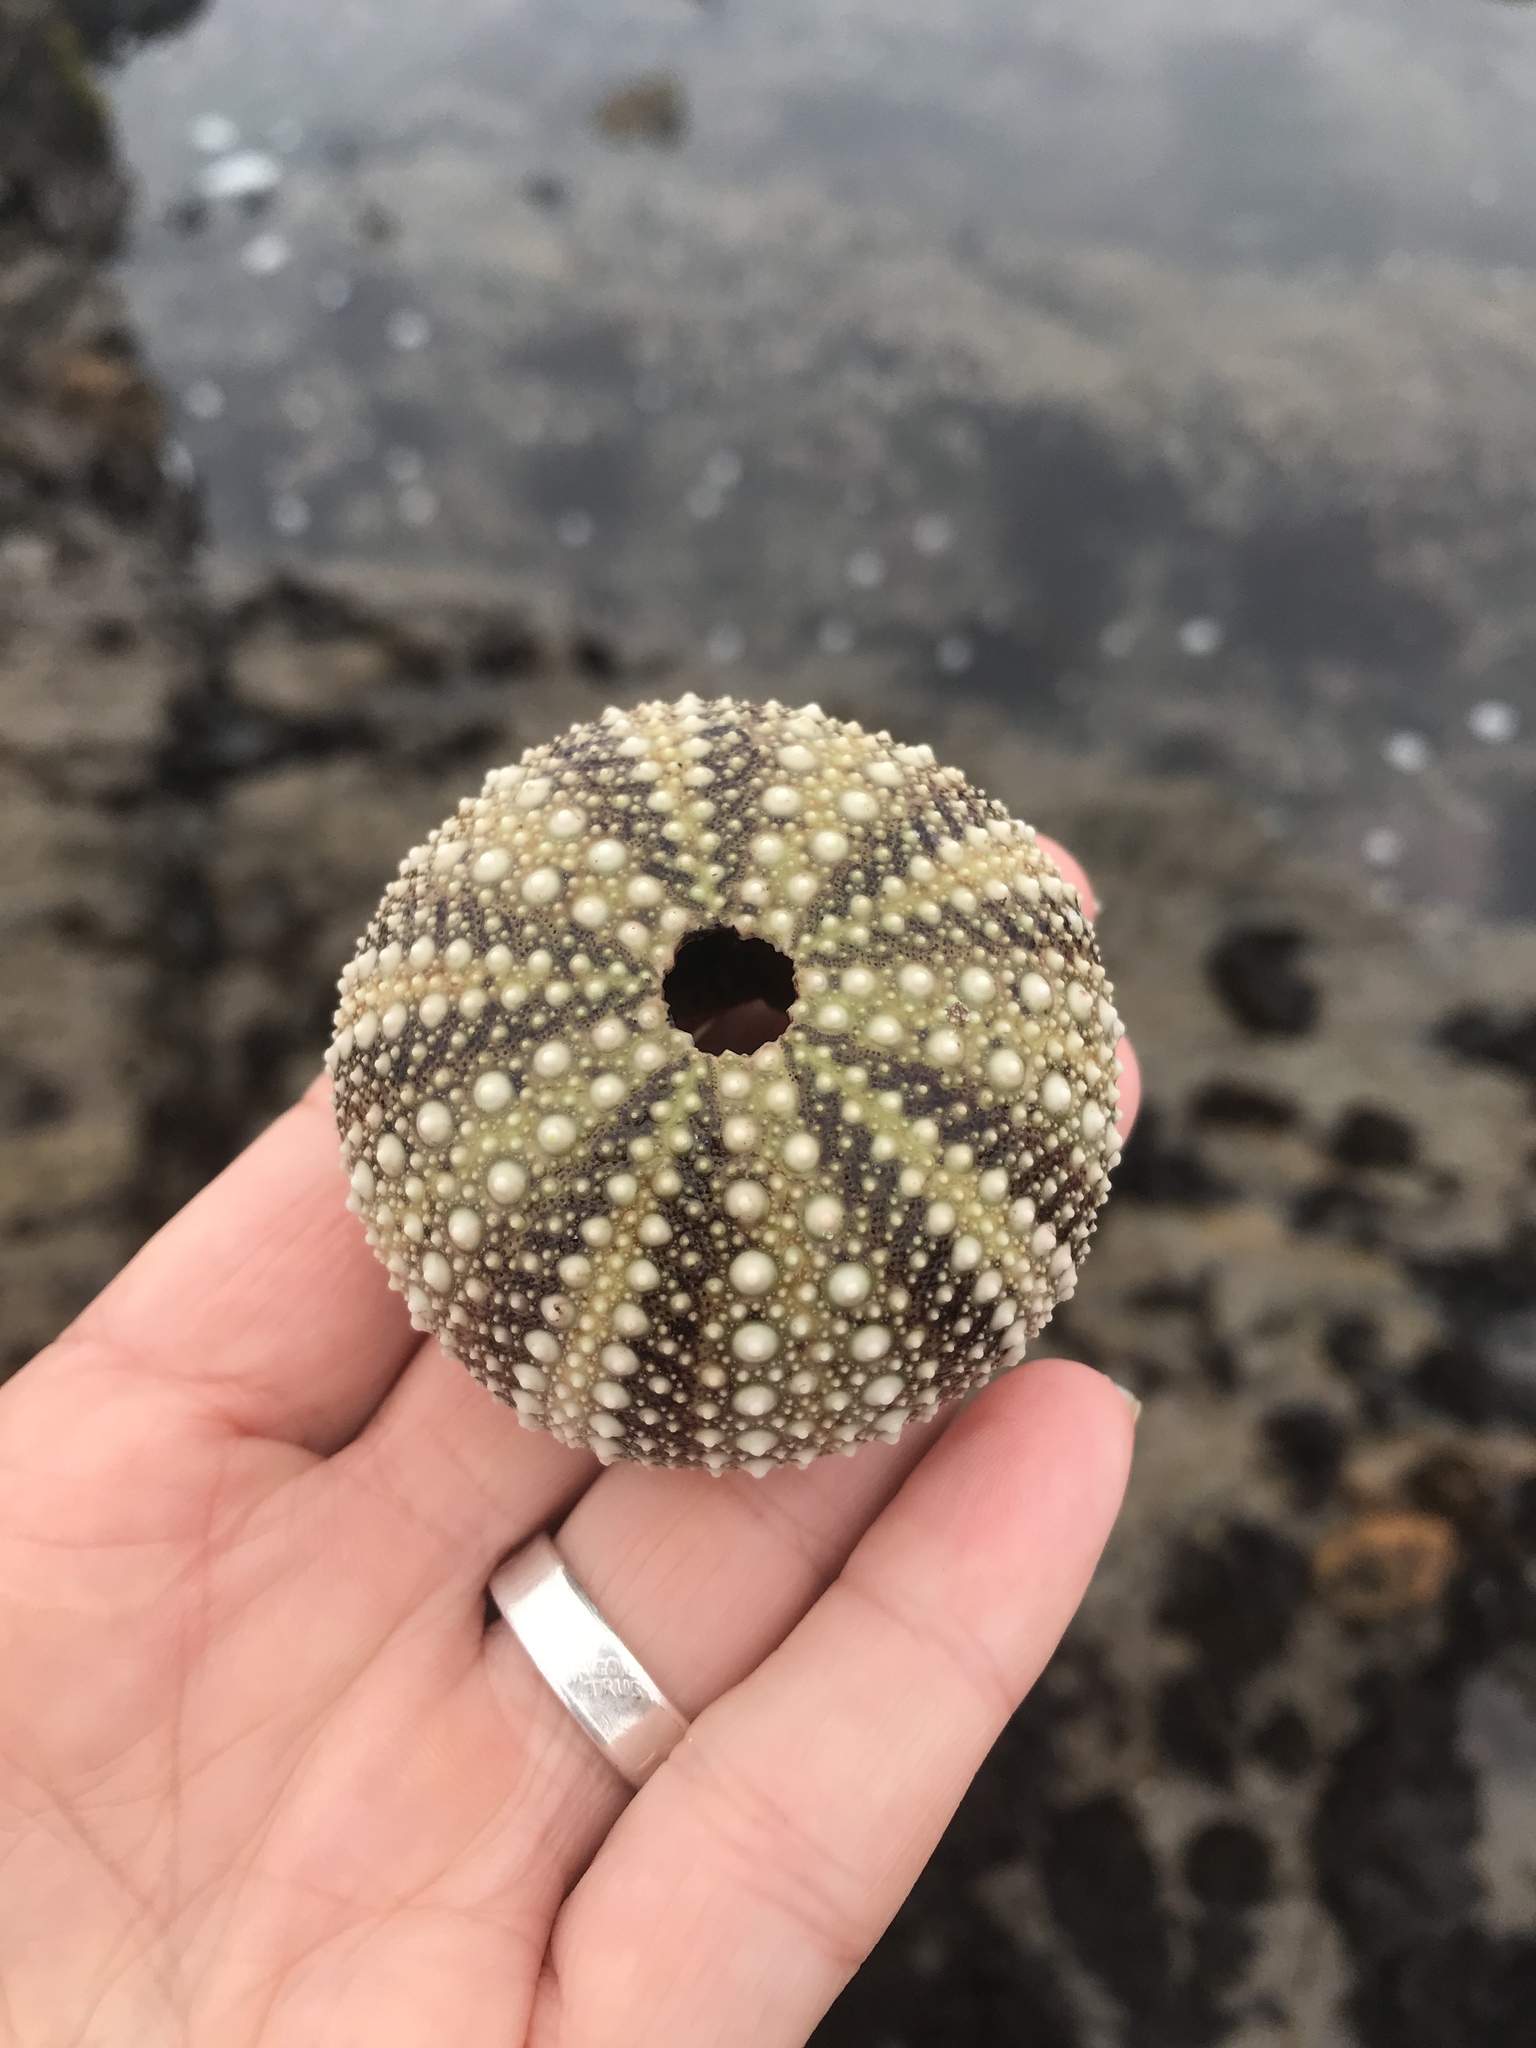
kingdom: Animalia
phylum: Echinodermata
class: Echinoidea
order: Camarodonta
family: Strongylocentrotidae
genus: Strongylocentrotus
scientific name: Strongylocentrotus purpuratus
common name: Purple sea urchin
